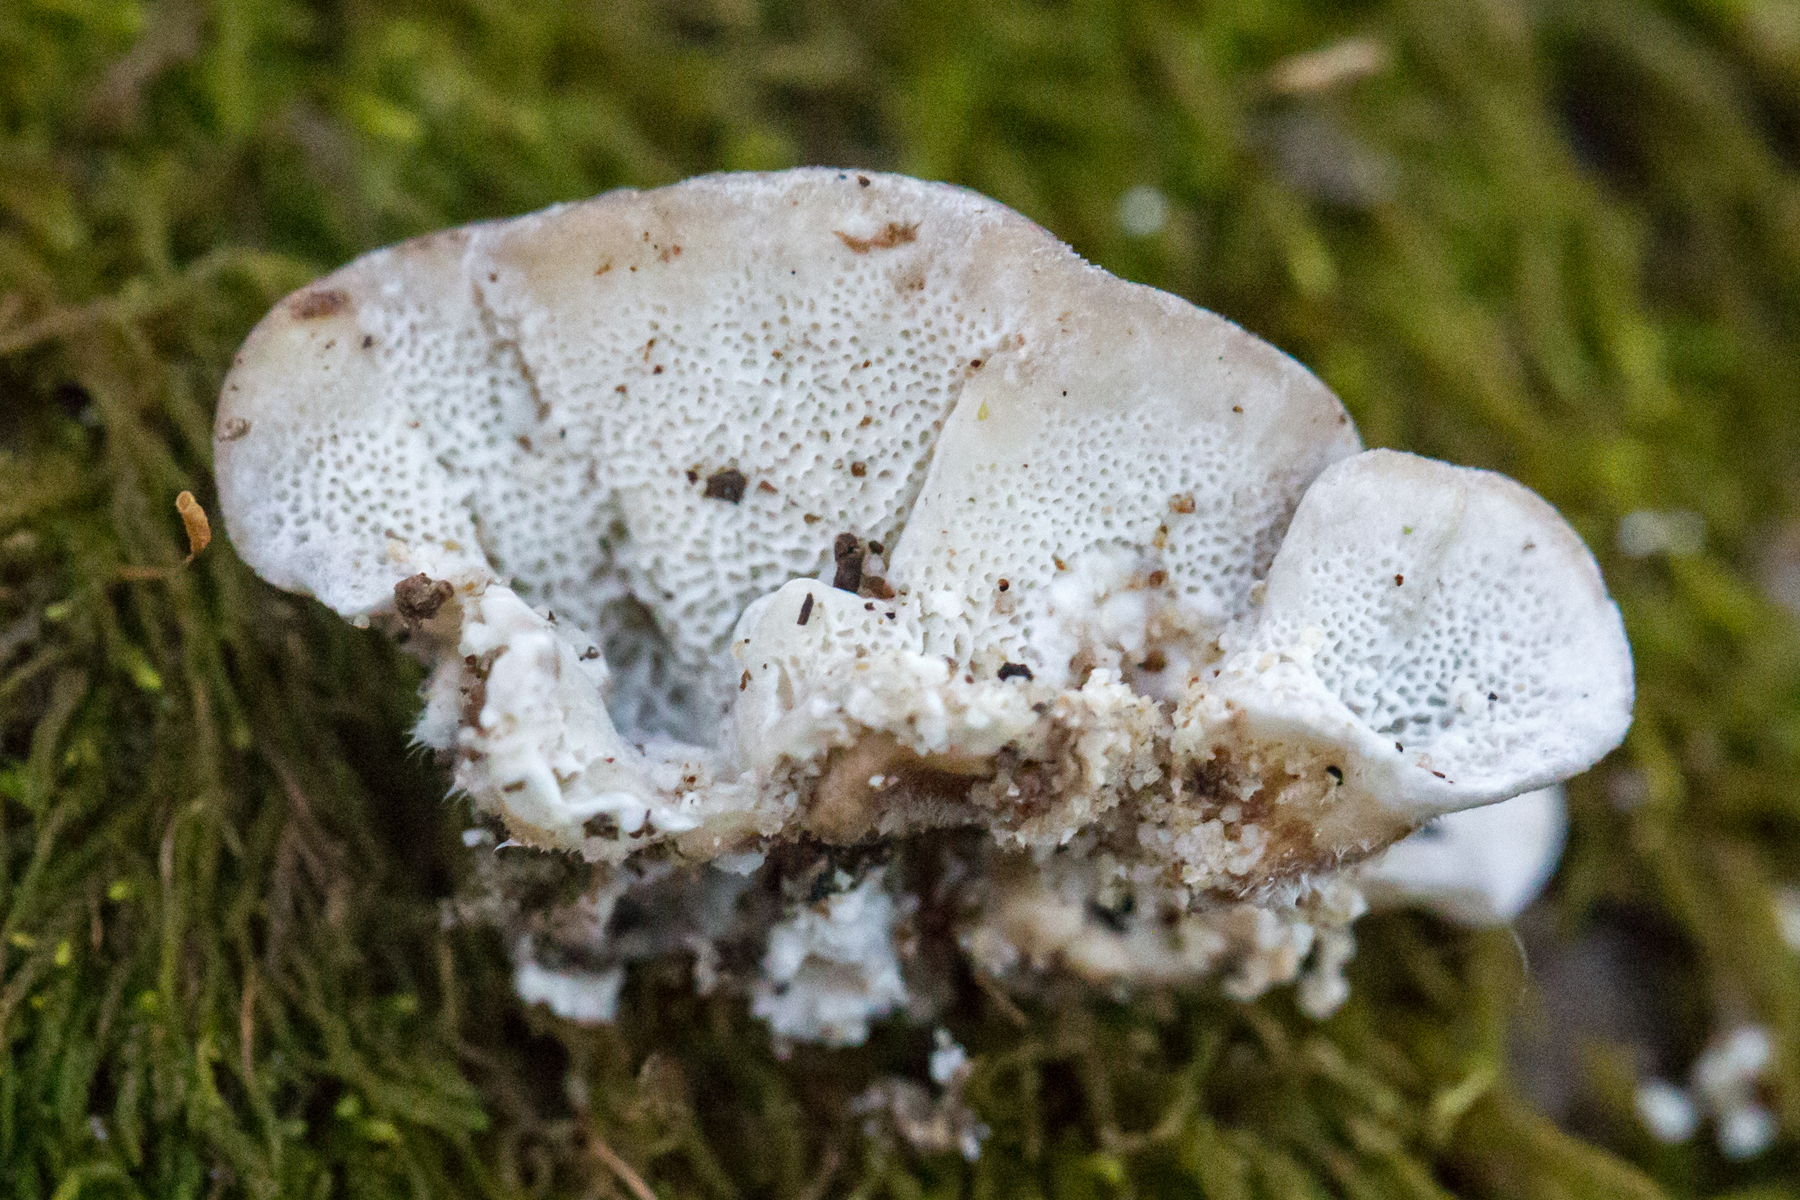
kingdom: Fungi
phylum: Basidiomycota
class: Agaricomycetes
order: Polyporales
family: Polyporaceae
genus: Trametes
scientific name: Trametes versicolor
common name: Turkeytail
